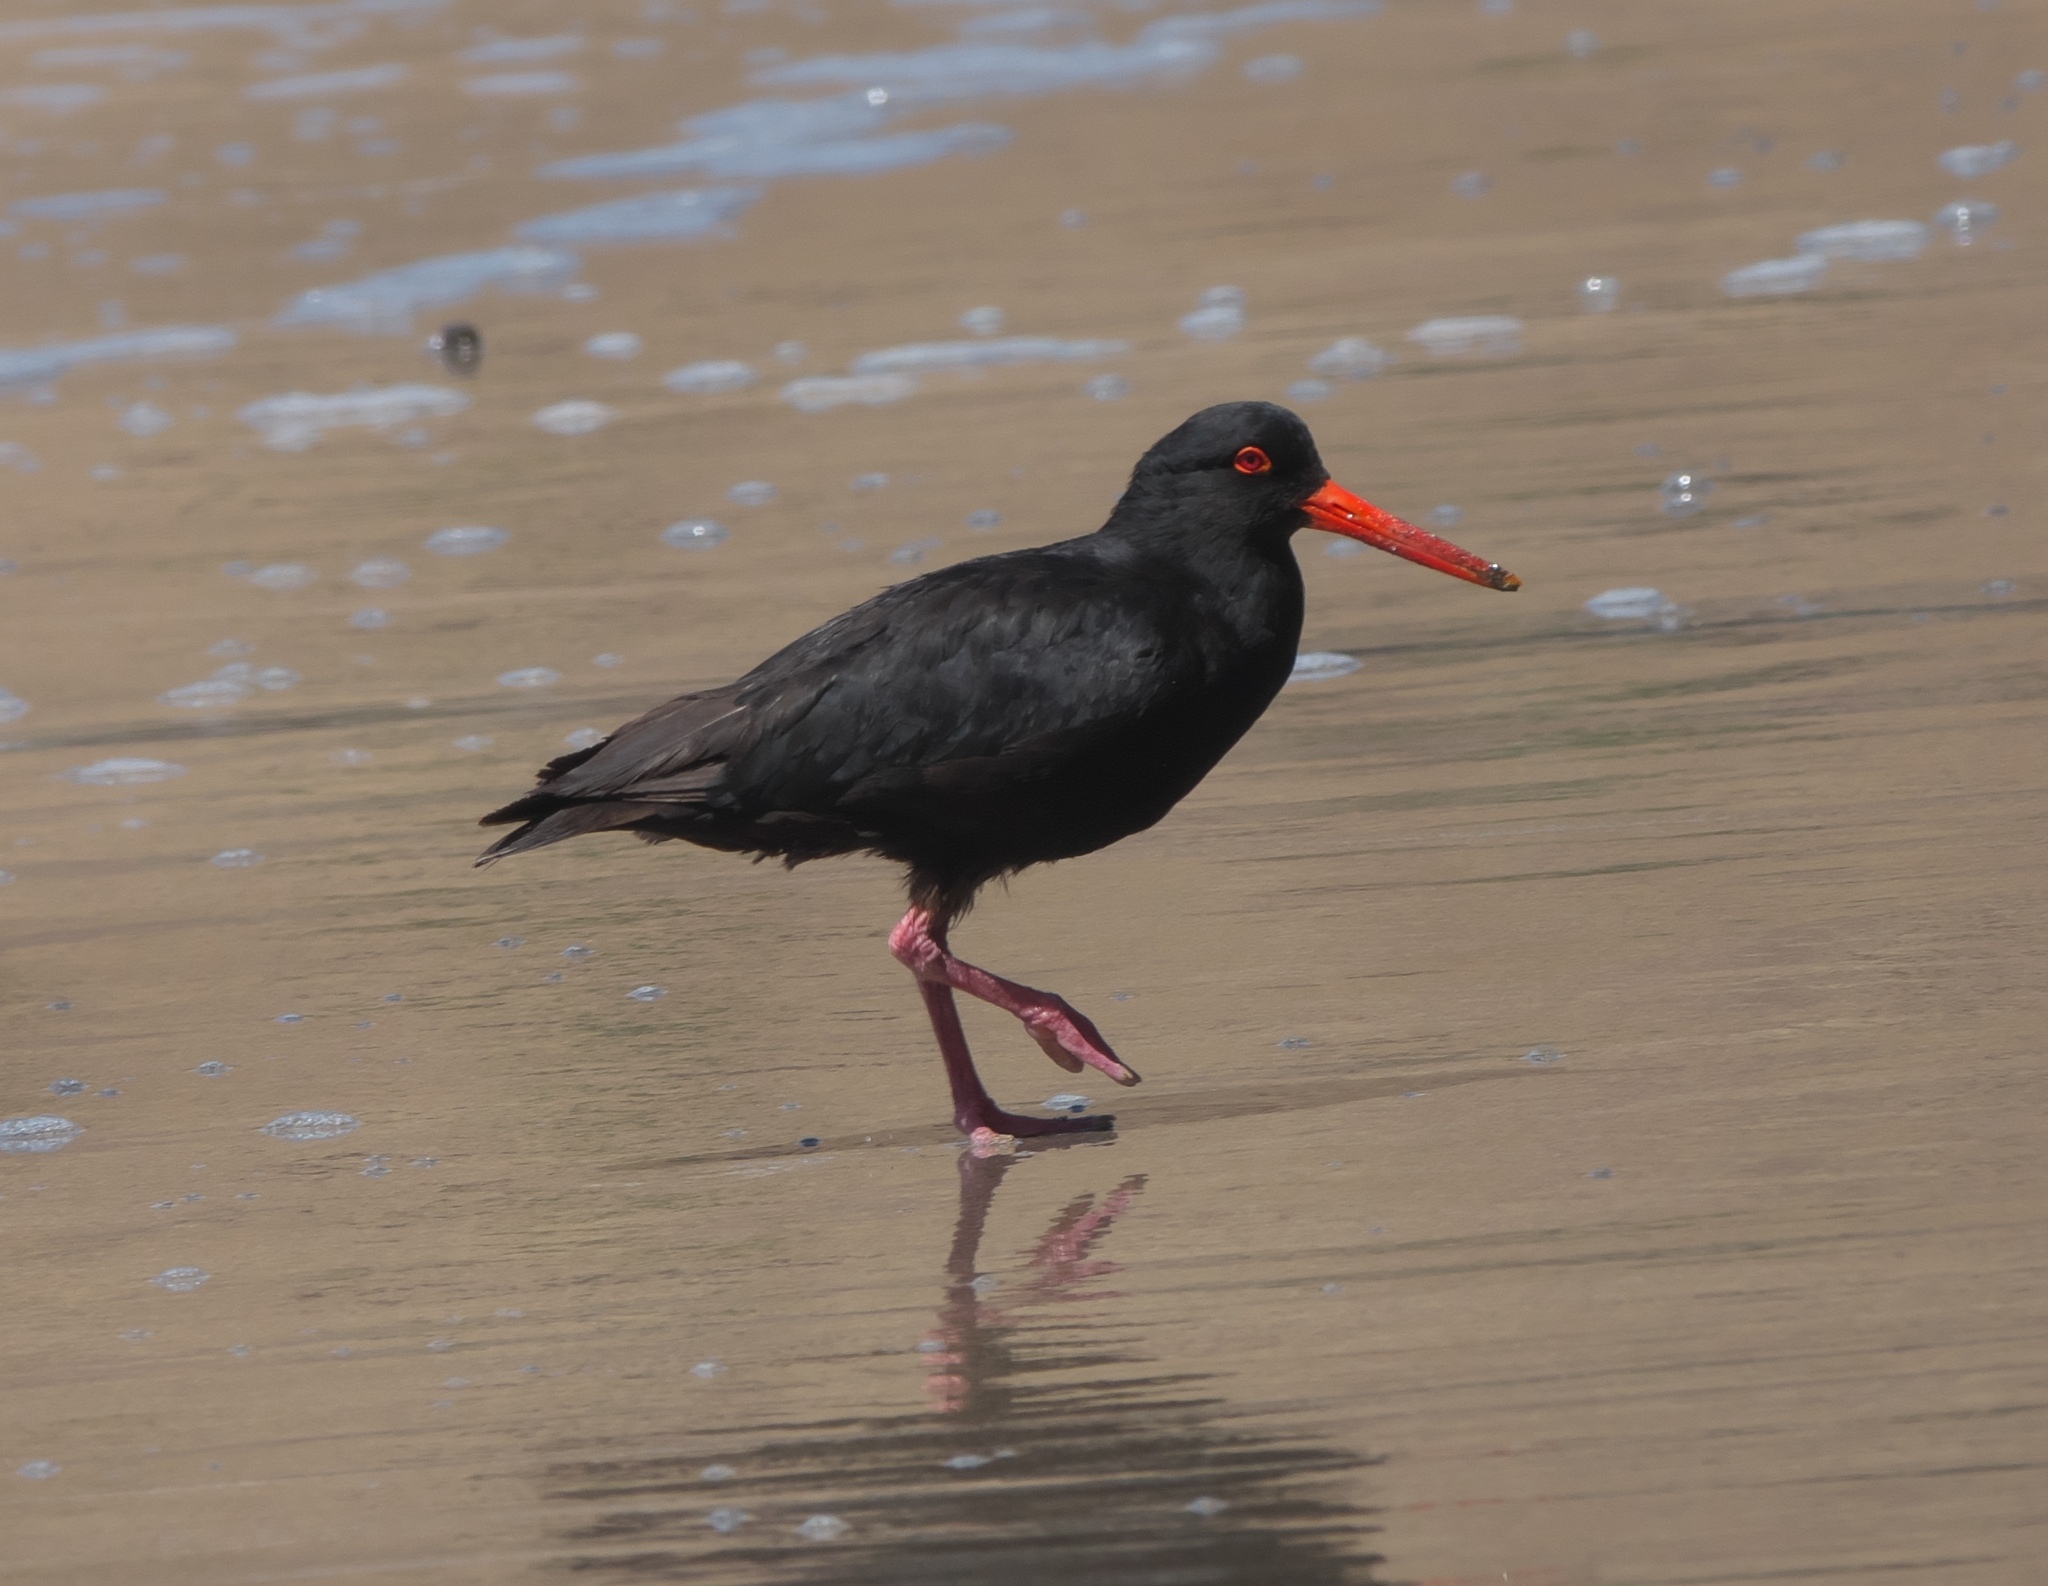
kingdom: Animalia
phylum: Chordata
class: Aves
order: Charadriiformes
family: Haematopodidae
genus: Haematopus
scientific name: Haematopus unicolor
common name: Variable oystercatcher
